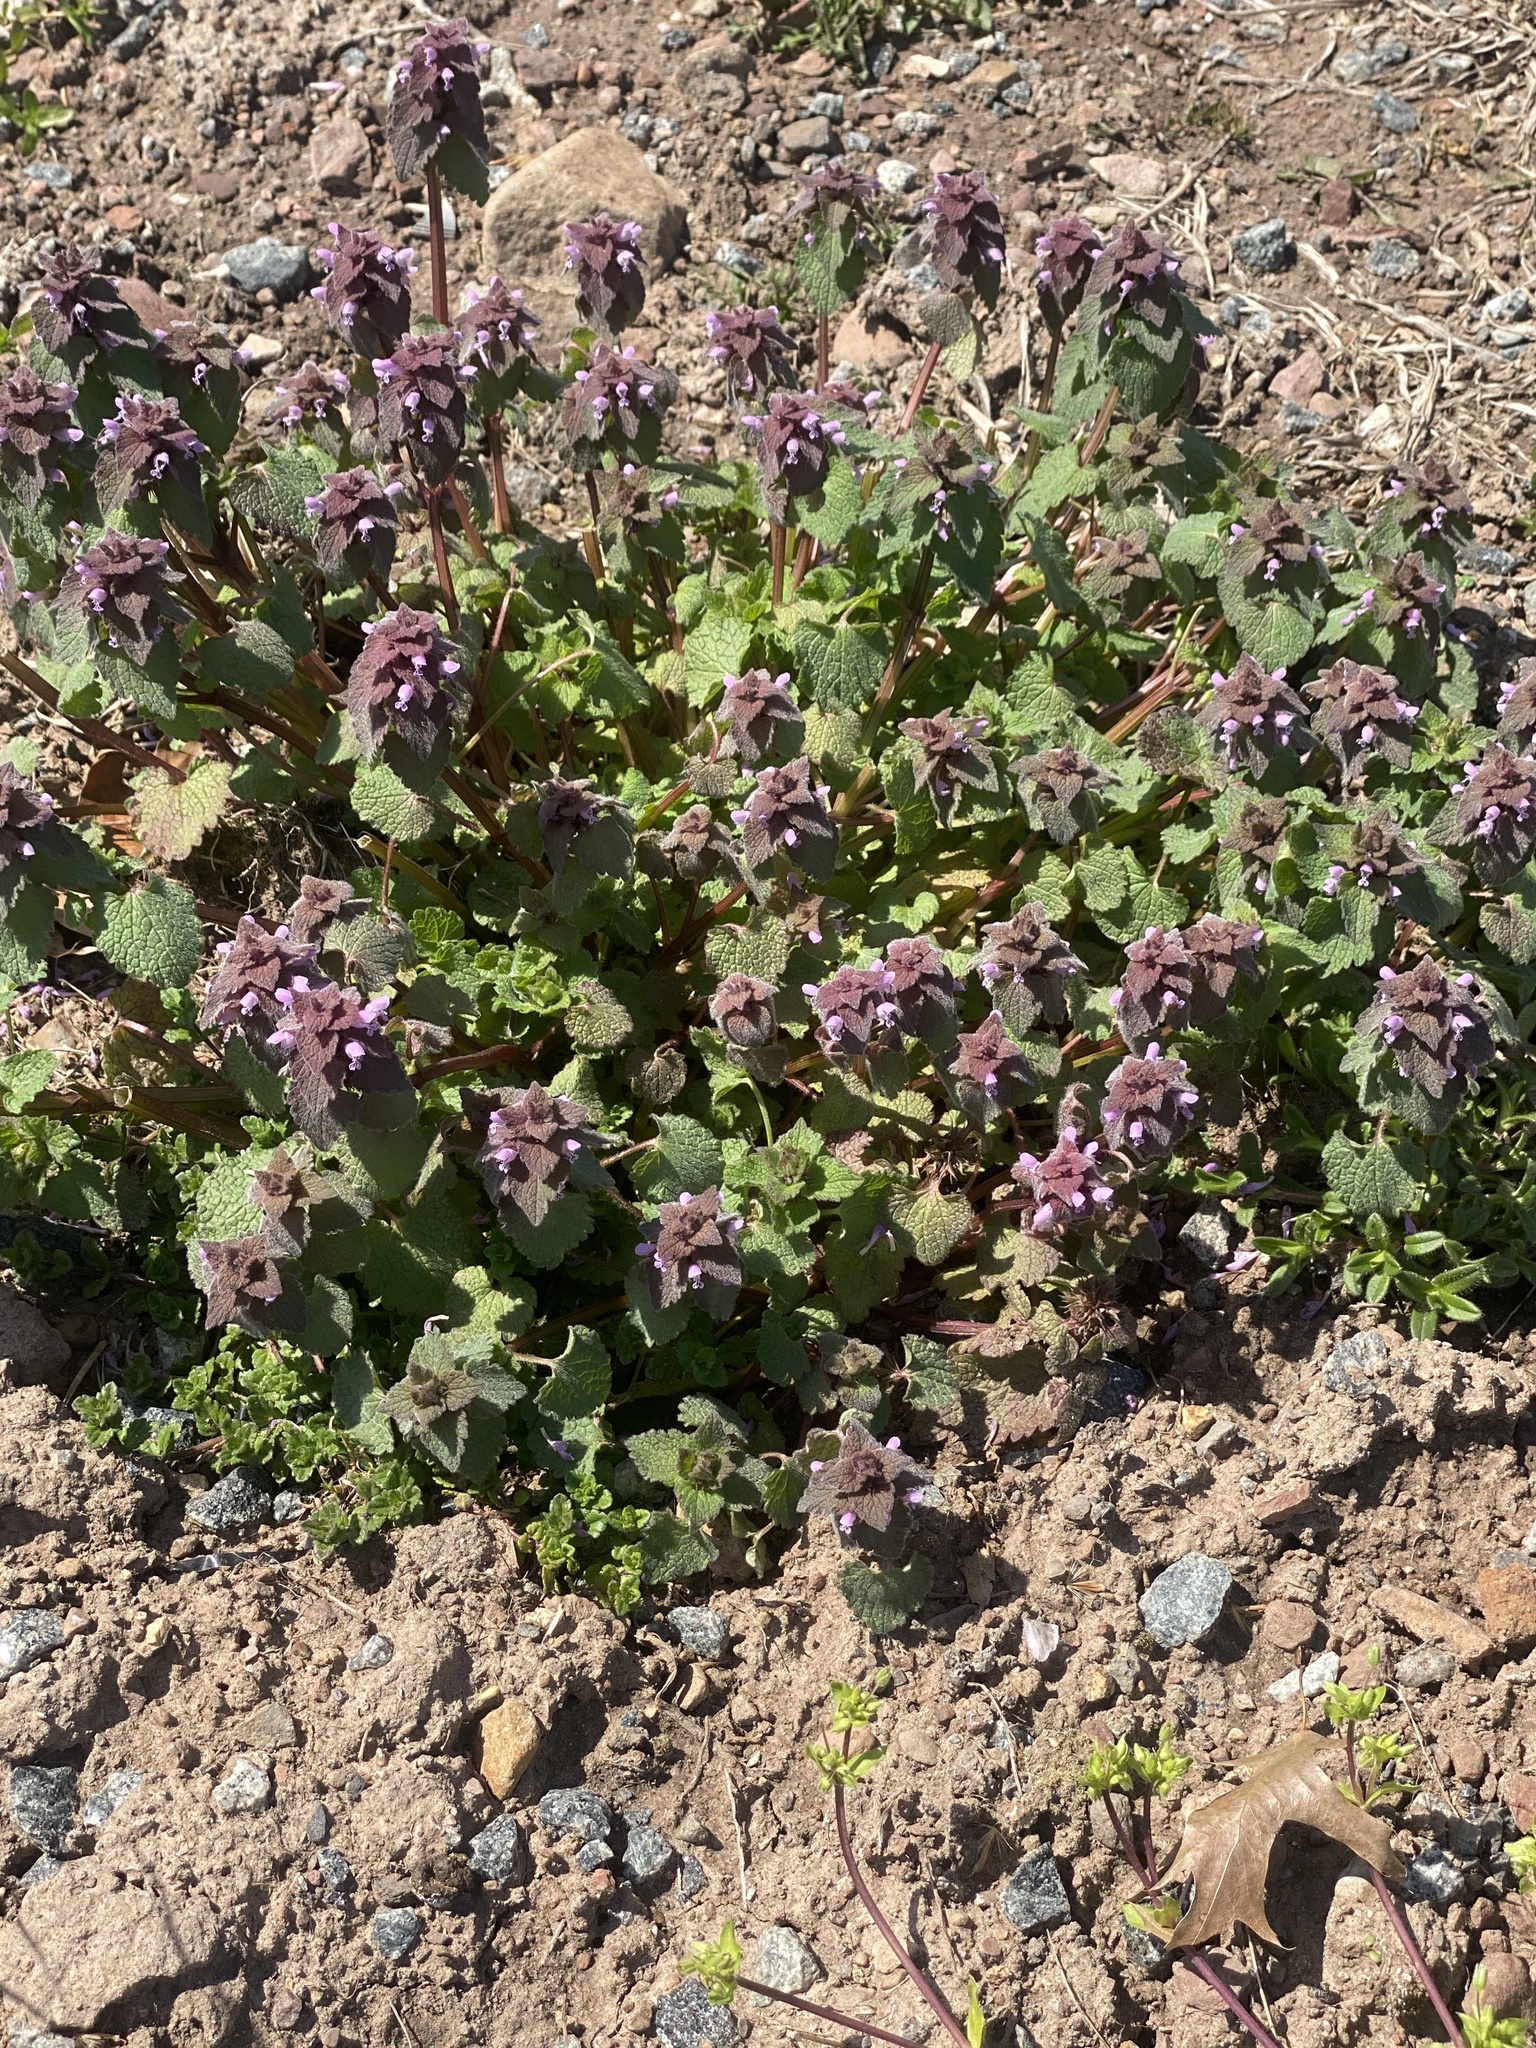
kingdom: Plantae
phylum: Tracheophyta
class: Magnoliopsida
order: Lamiales
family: Lamiaceae
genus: Lamium
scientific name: Lamium purpureum
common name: Red dead-nettle
